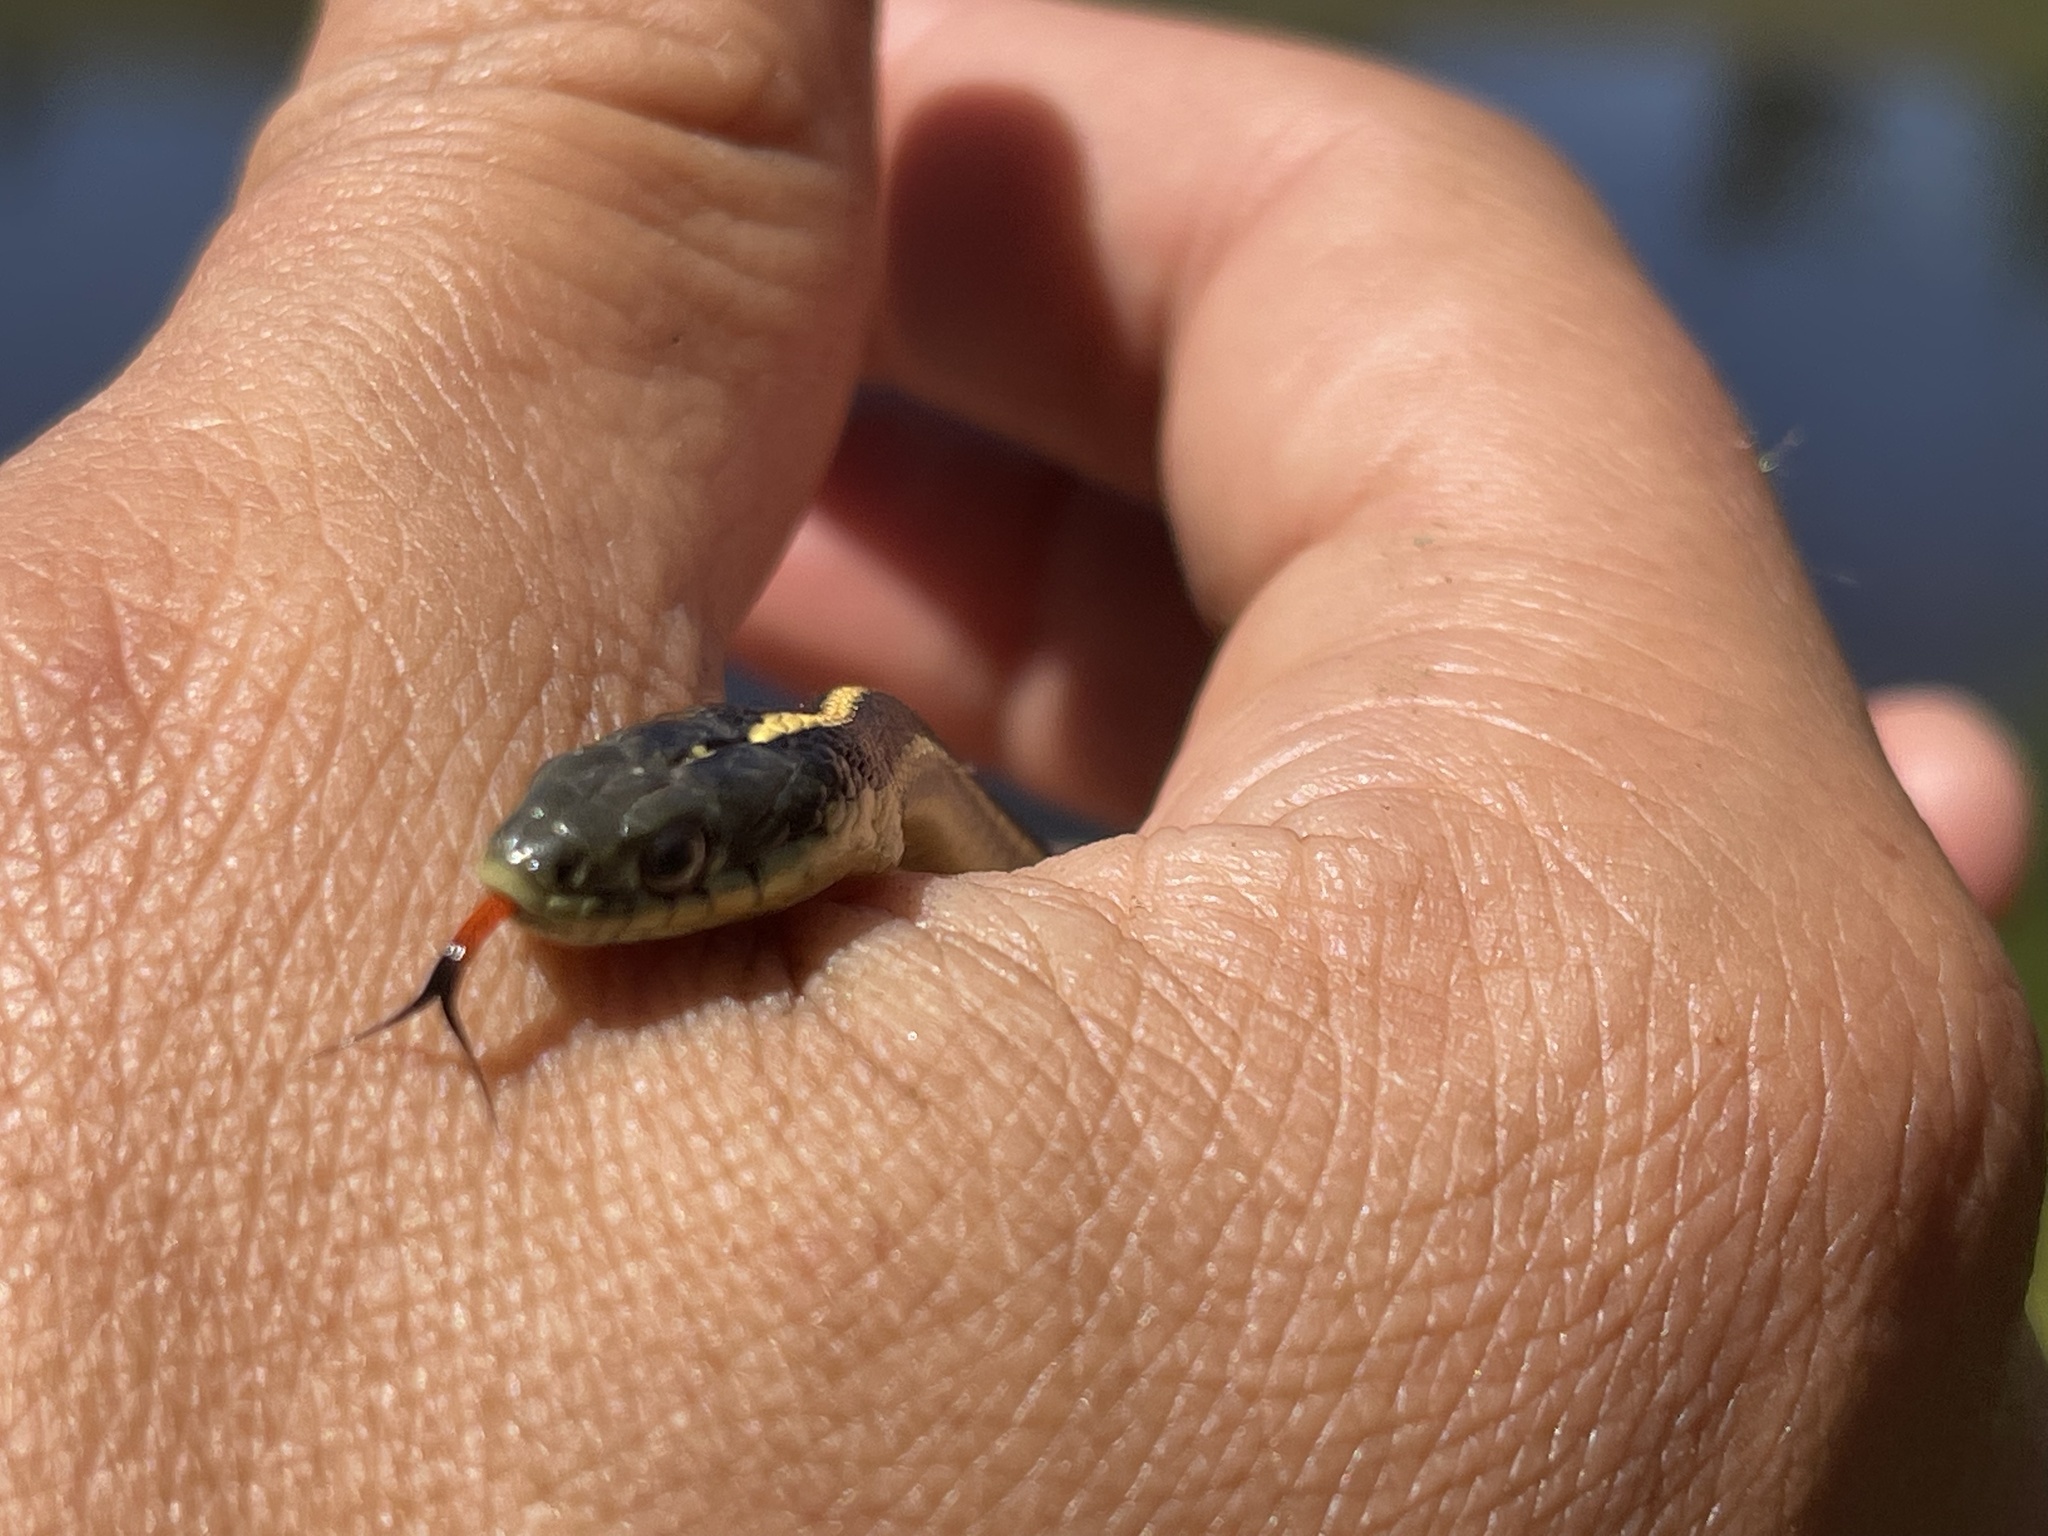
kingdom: Animalia
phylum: Chordata
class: Squamata
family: Colubridae
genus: Thamnophis
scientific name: Thamnophis atratus
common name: Pacific coast aquatic garter snake
